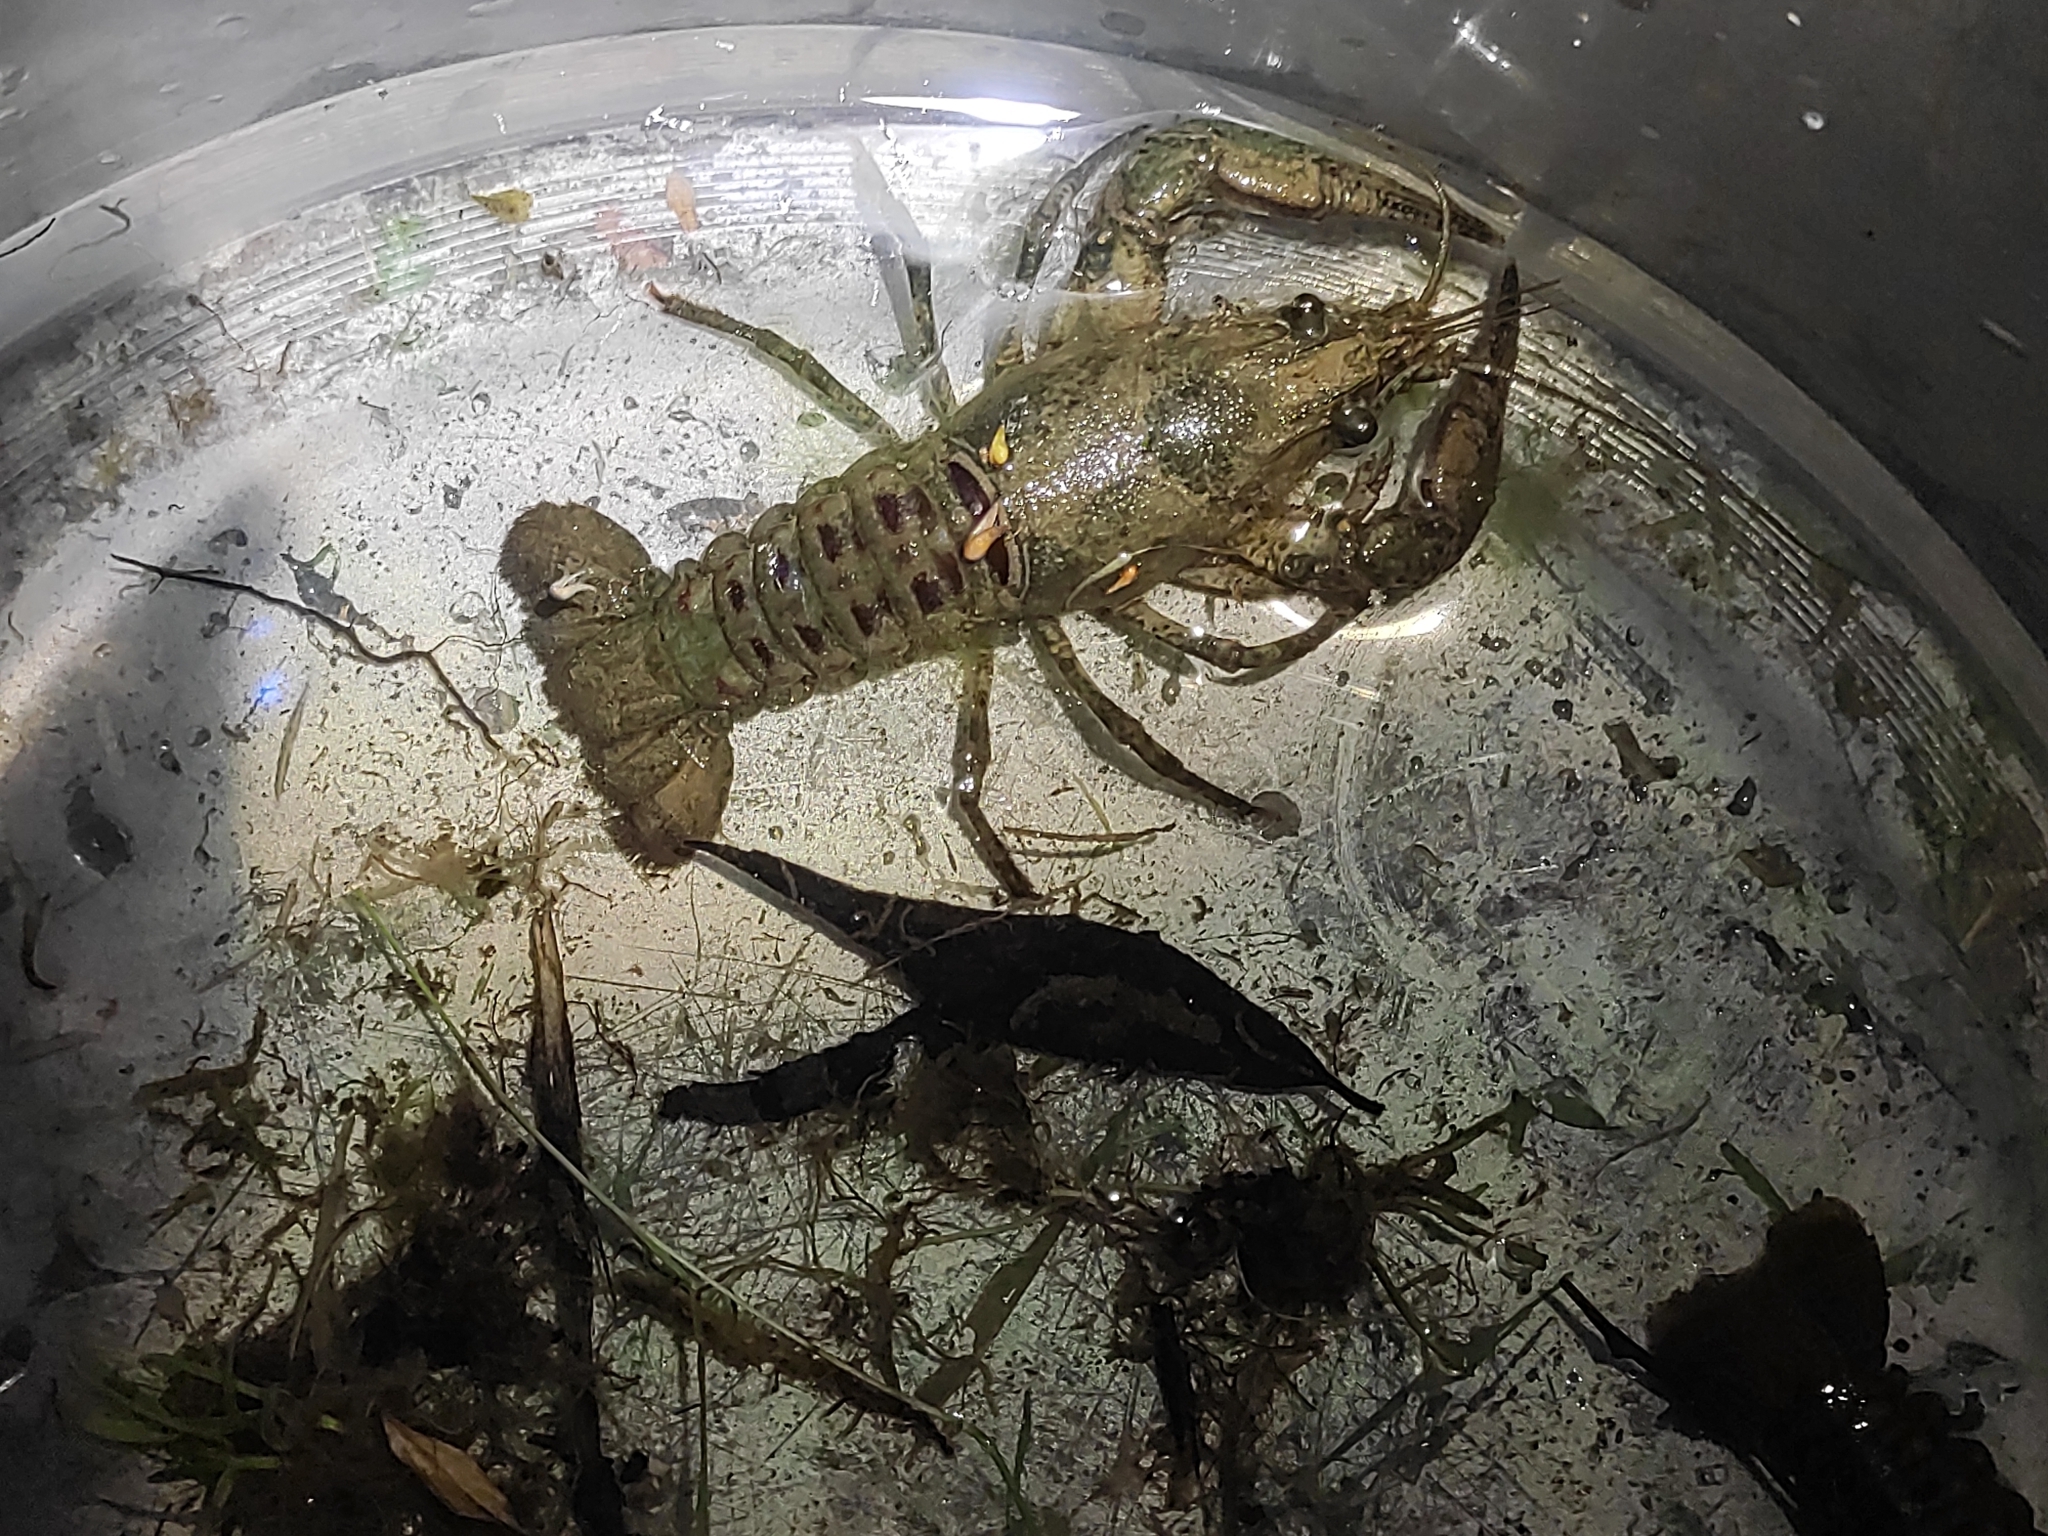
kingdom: Animalia
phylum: Arthropoda
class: Malacostraca
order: Decapoda
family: Cambaridae
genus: Faxonius
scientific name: Faxonius limosus
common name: American crayfish
